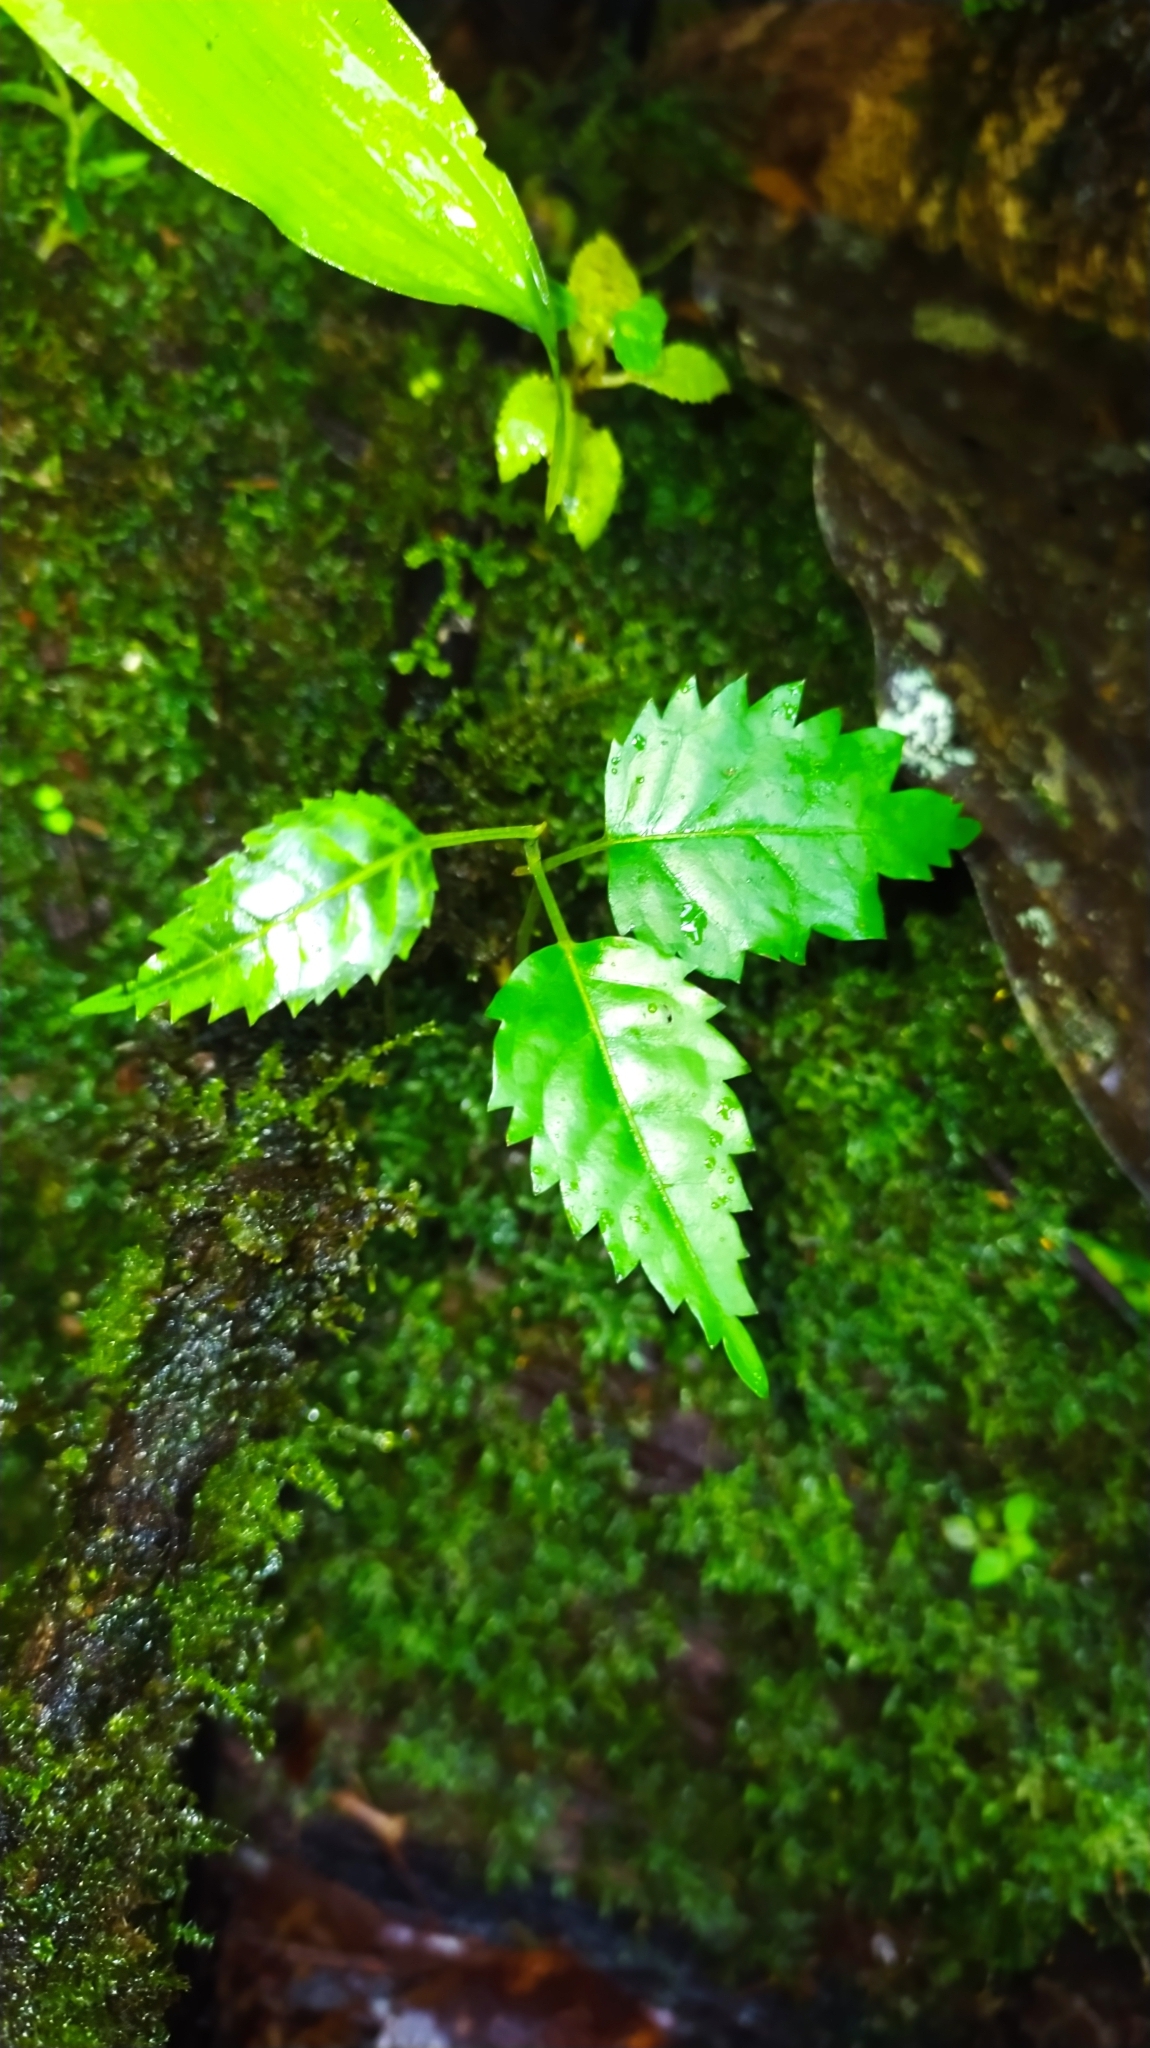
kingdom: Plantae
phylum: Tracheophyta
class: Magnoliopsida
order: Lamiales
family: Bignoniaceae
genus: Handroanthus
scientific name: Handroanthus
